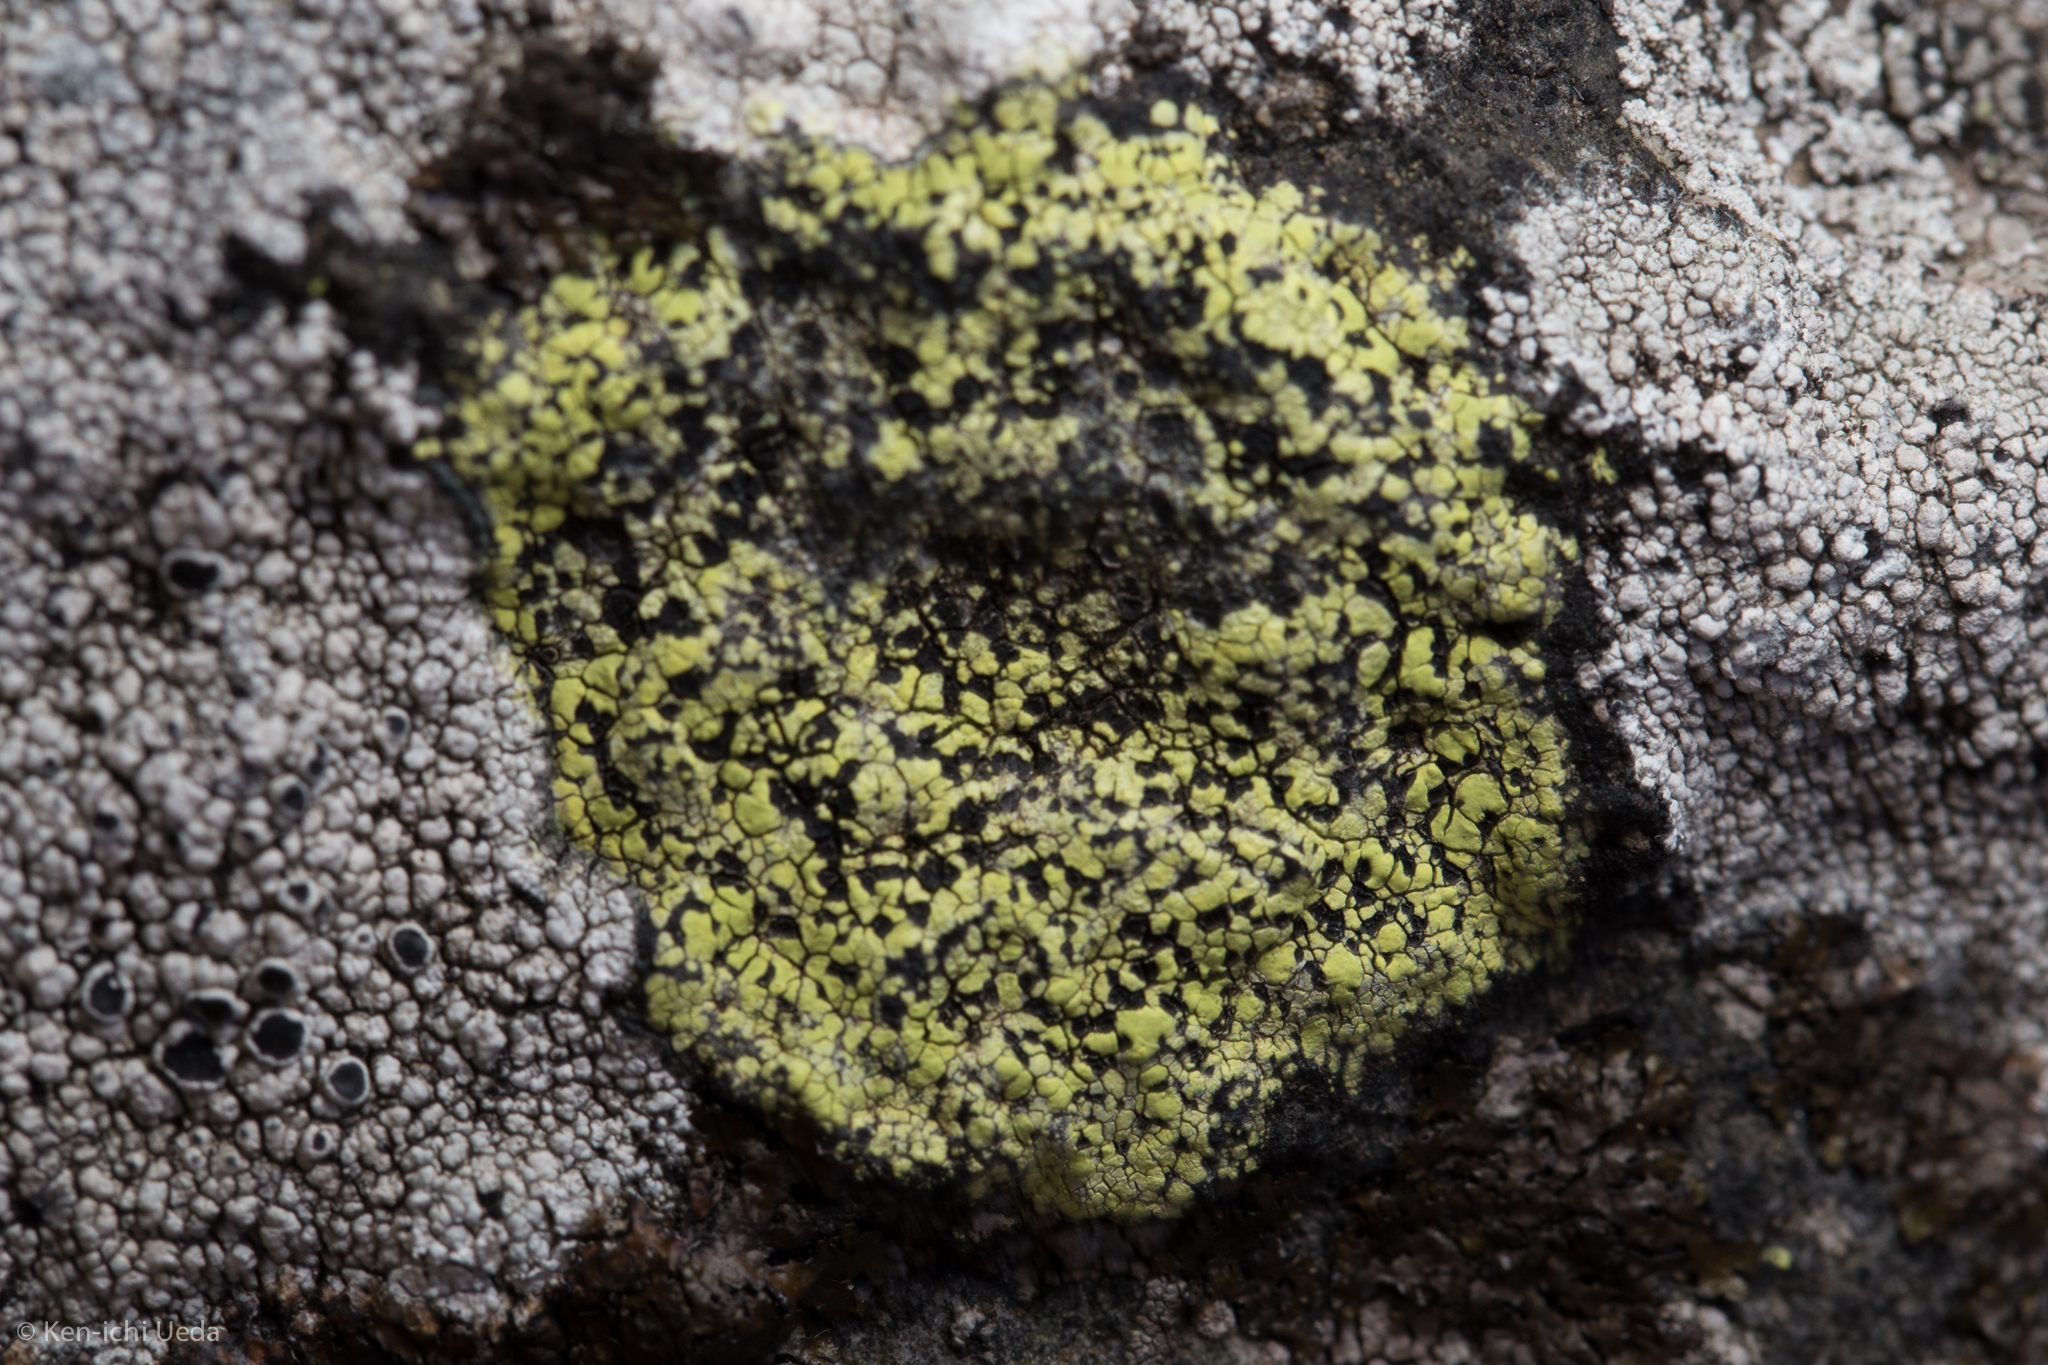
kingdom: Fungi
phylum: Ascomycota
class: Lecanoromycetes
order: Rhizocarpales
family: Rhizocarpaceae
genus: Rhizocarpon
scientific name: Rhizocarpon lecanorinum
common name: Crescent map lichen
